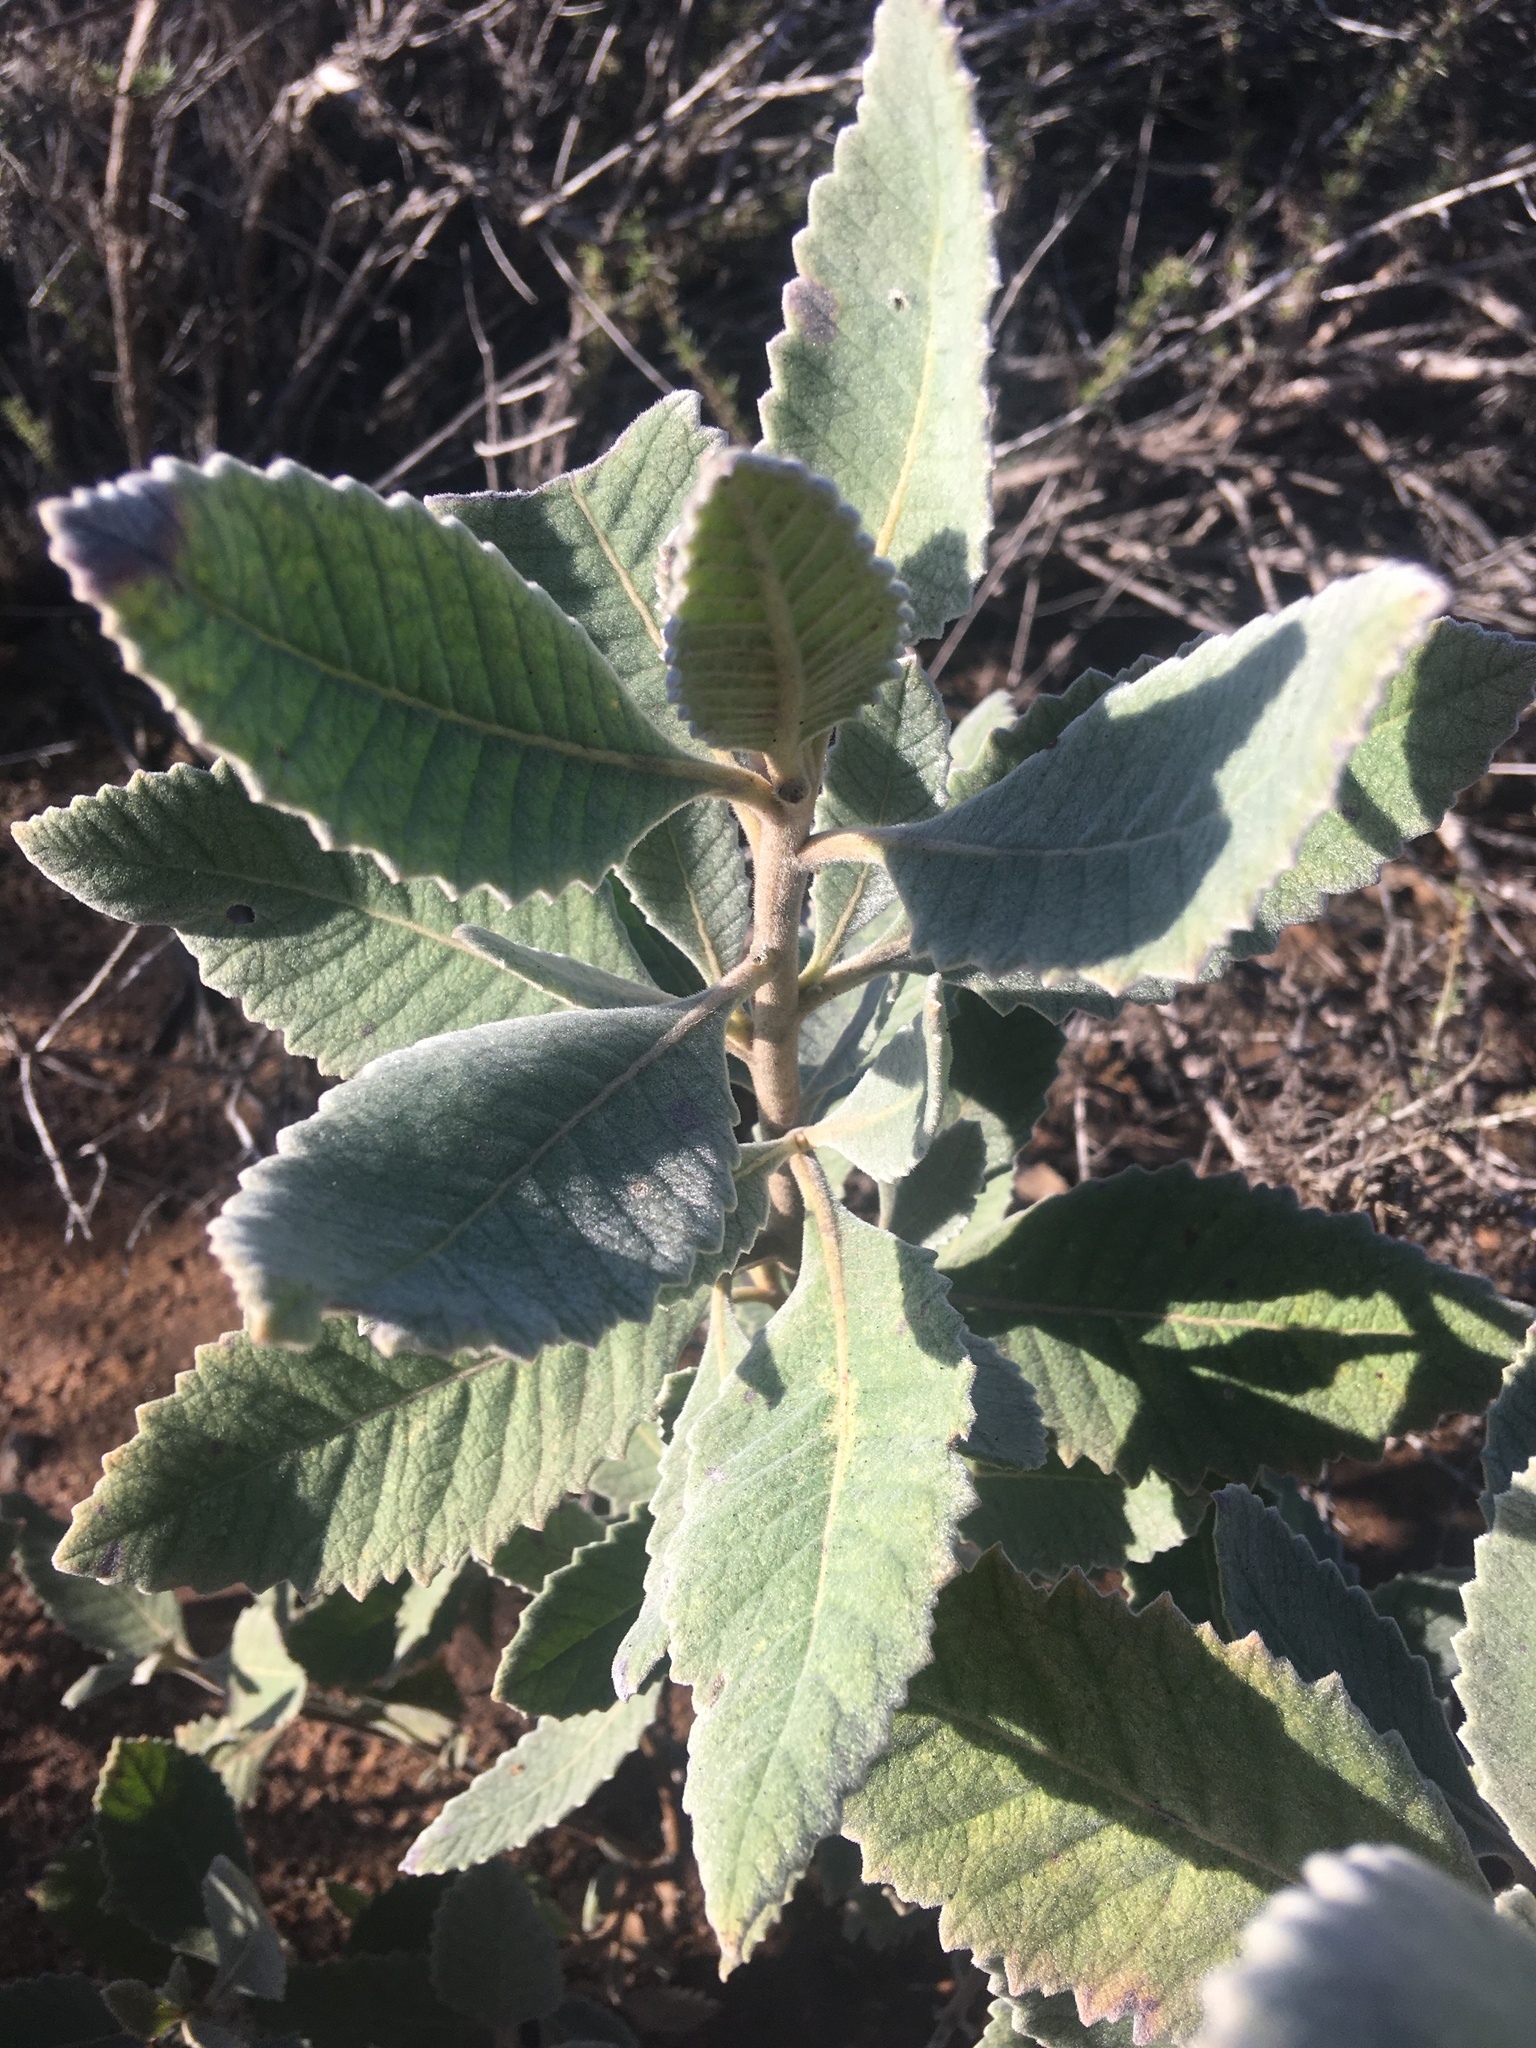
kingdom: Plantae
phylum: Tracheophyta
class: Magnoliopsida
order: Boraginales
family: Namaceae
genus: Eriodictyon
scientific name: Eriodictyon crassifolium
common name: Thick-leaf yerba-santa
